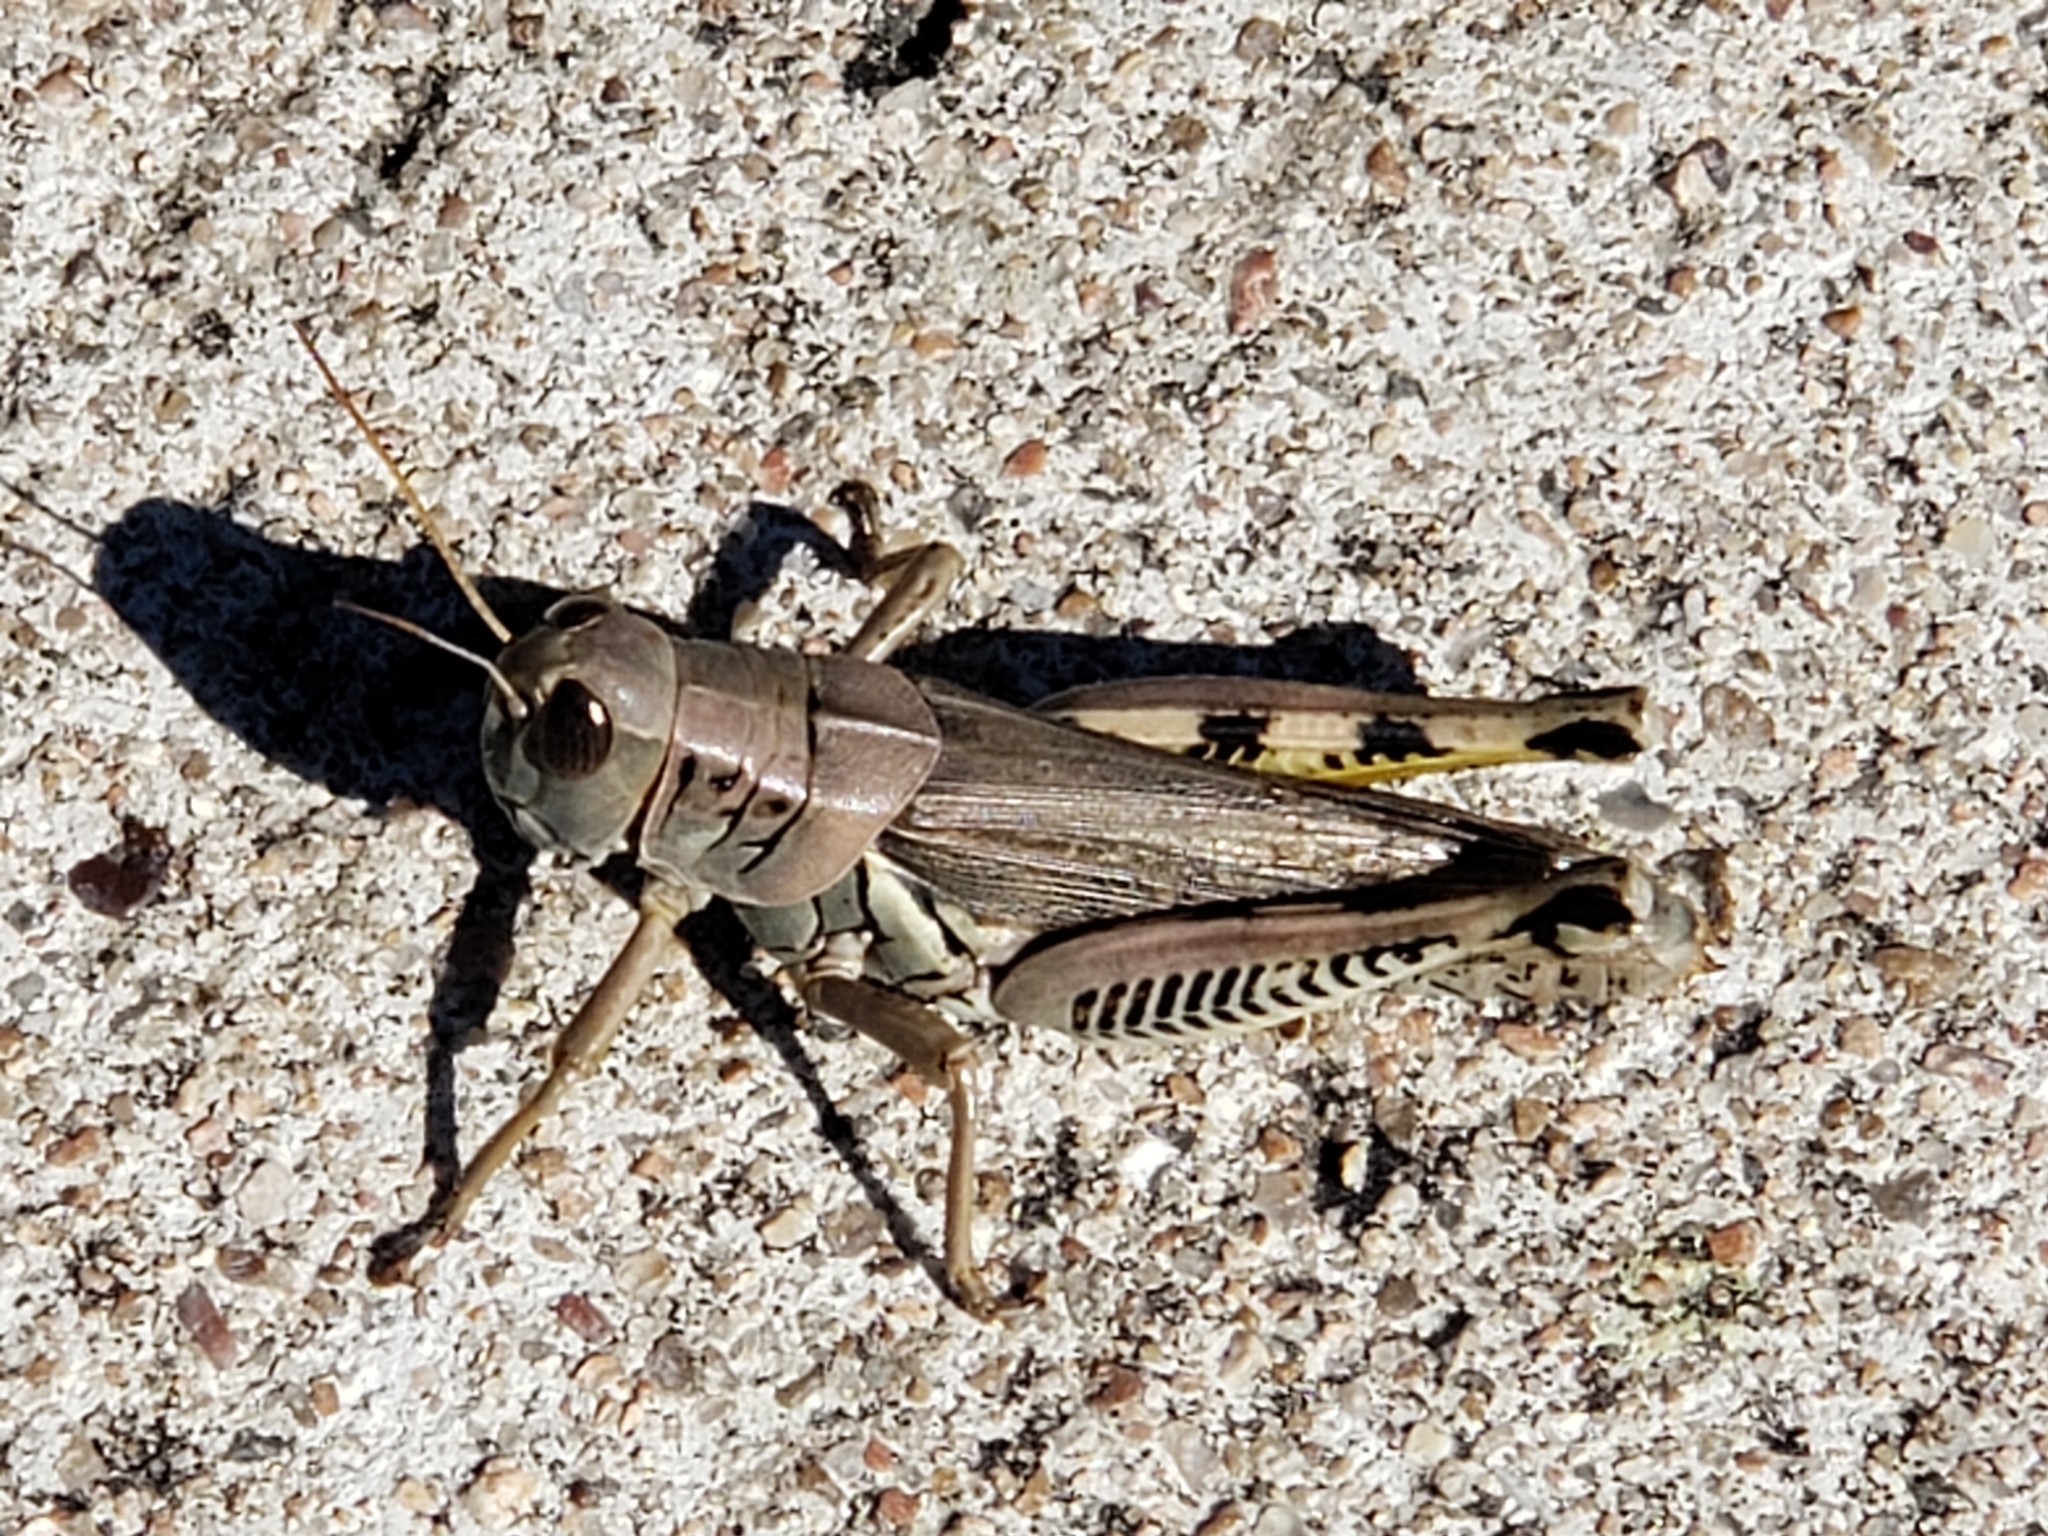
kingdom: Animalia
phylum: Arthropoda
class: Insecta
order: Orthoptera
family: Acrididae
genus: Melanoplus
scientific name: Melanoplus differentialis
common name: Differential grasshopper
